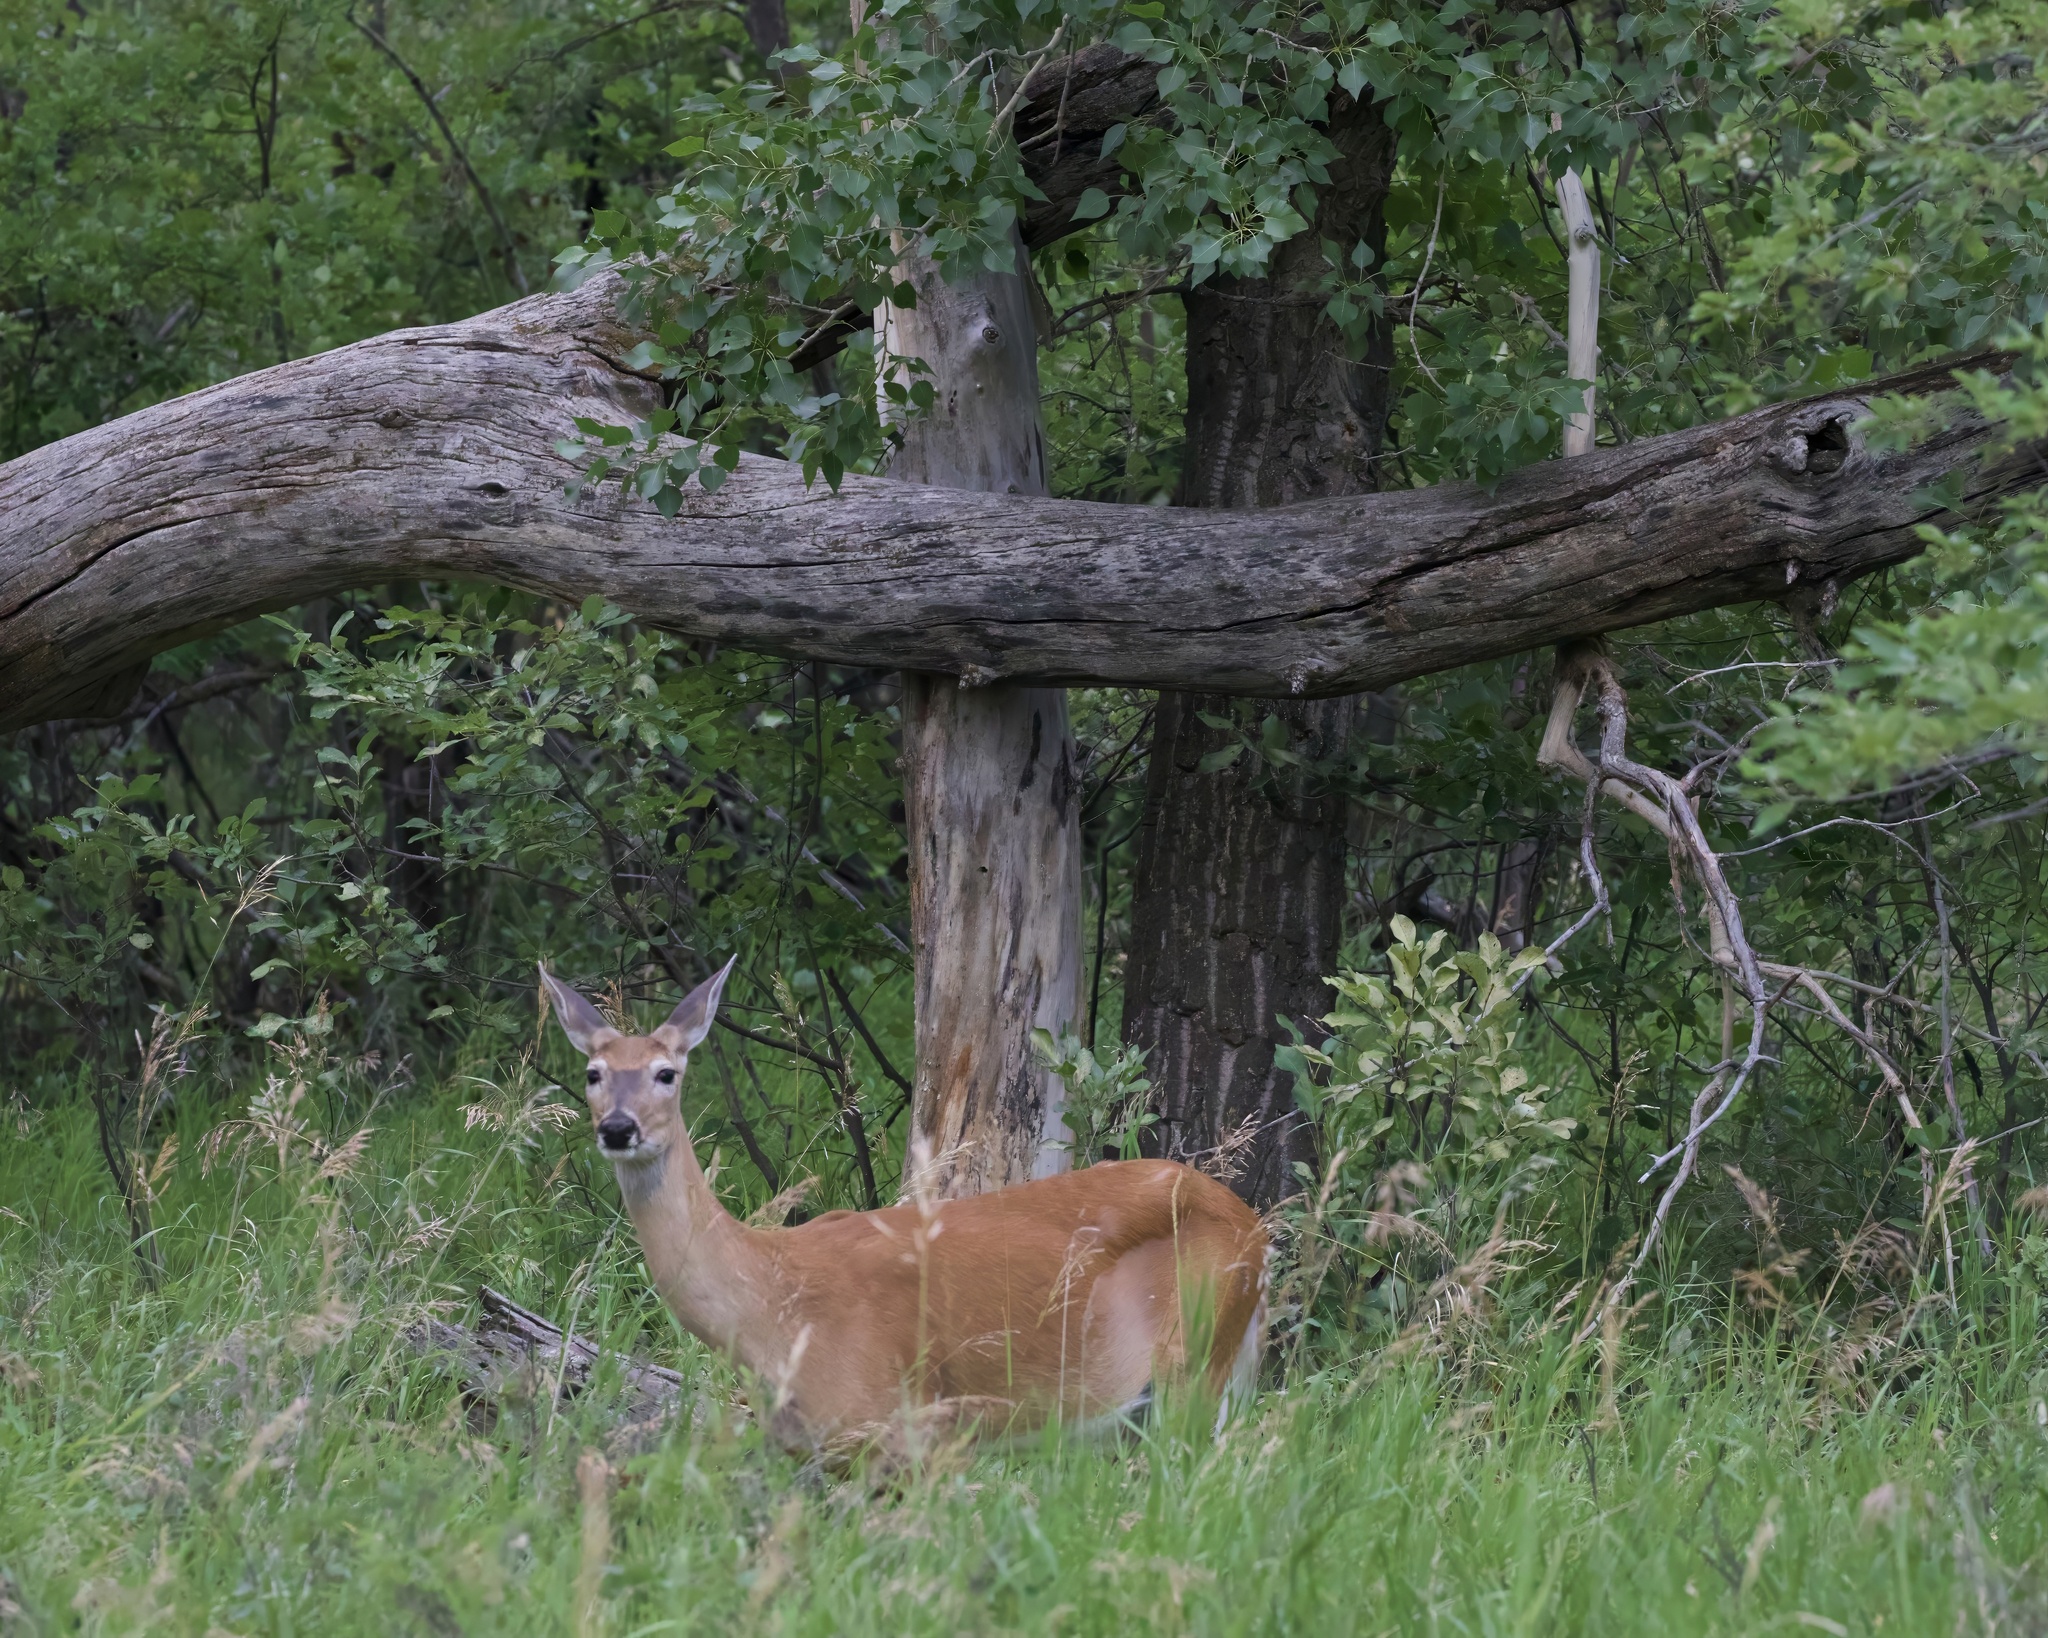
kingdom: Animalia
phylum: Chordata
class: Mammalia
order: Artiodactyla
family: Cervidae
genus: Odocoileus
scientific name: Odocoileus virginianus
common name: White-tailed deer
